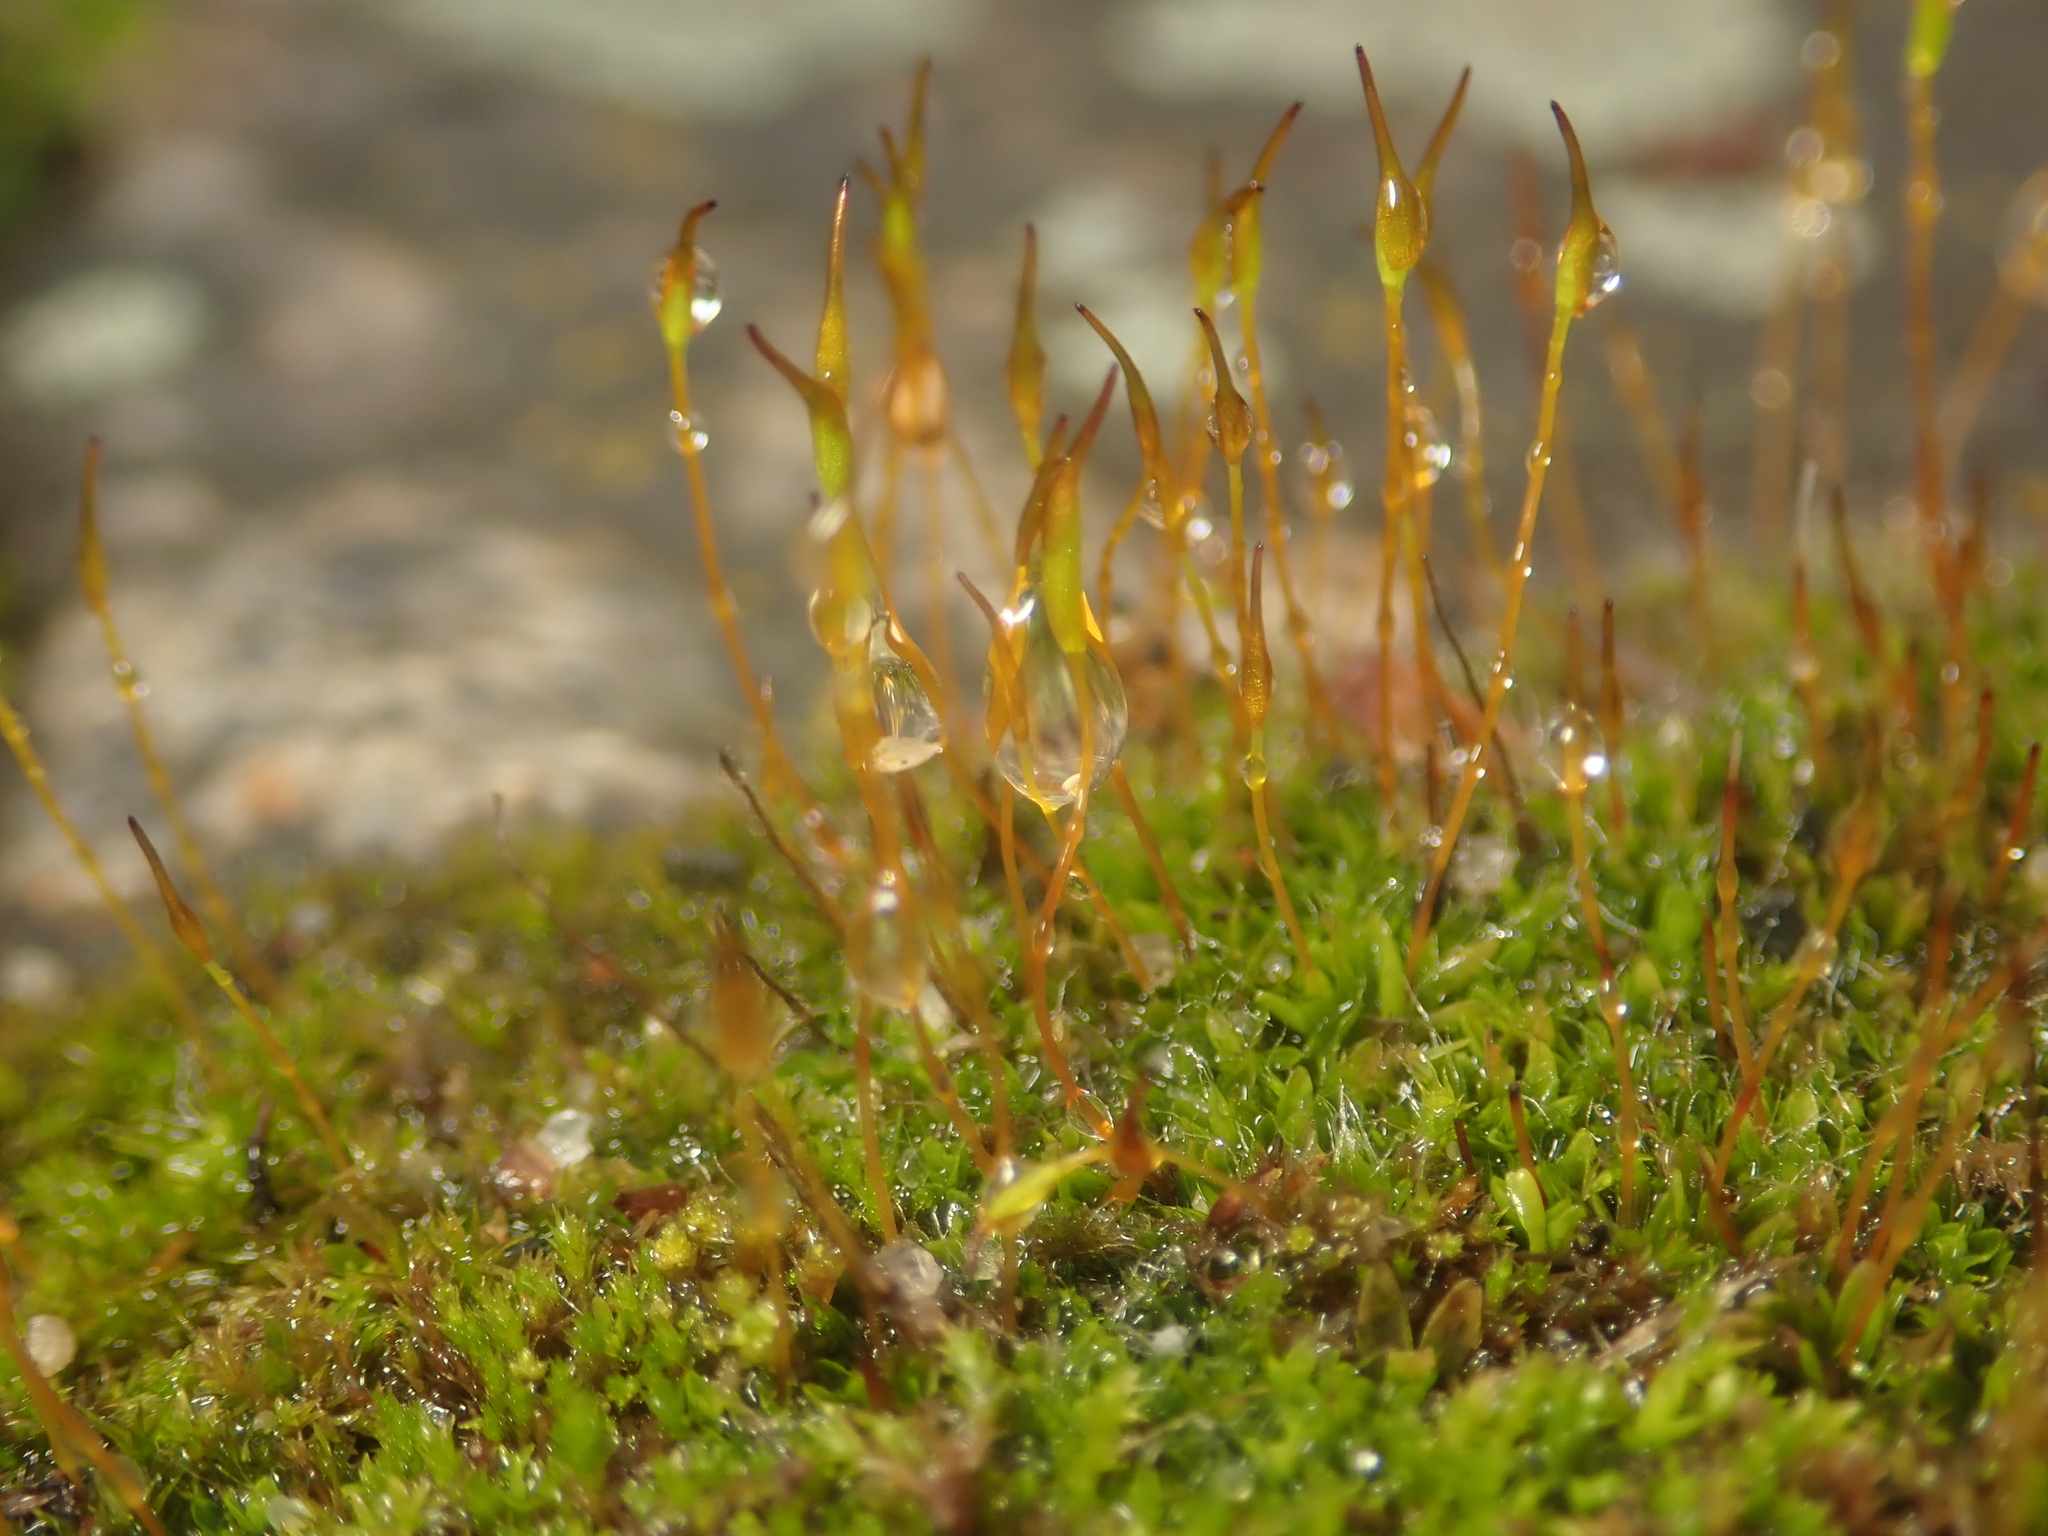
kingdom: Plantae
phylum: Bryophyta
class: Bryopsida
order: Pottiales
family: Pottiaceae
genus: Tortula
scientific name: Tortula muralis
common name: Wall screw-moss
